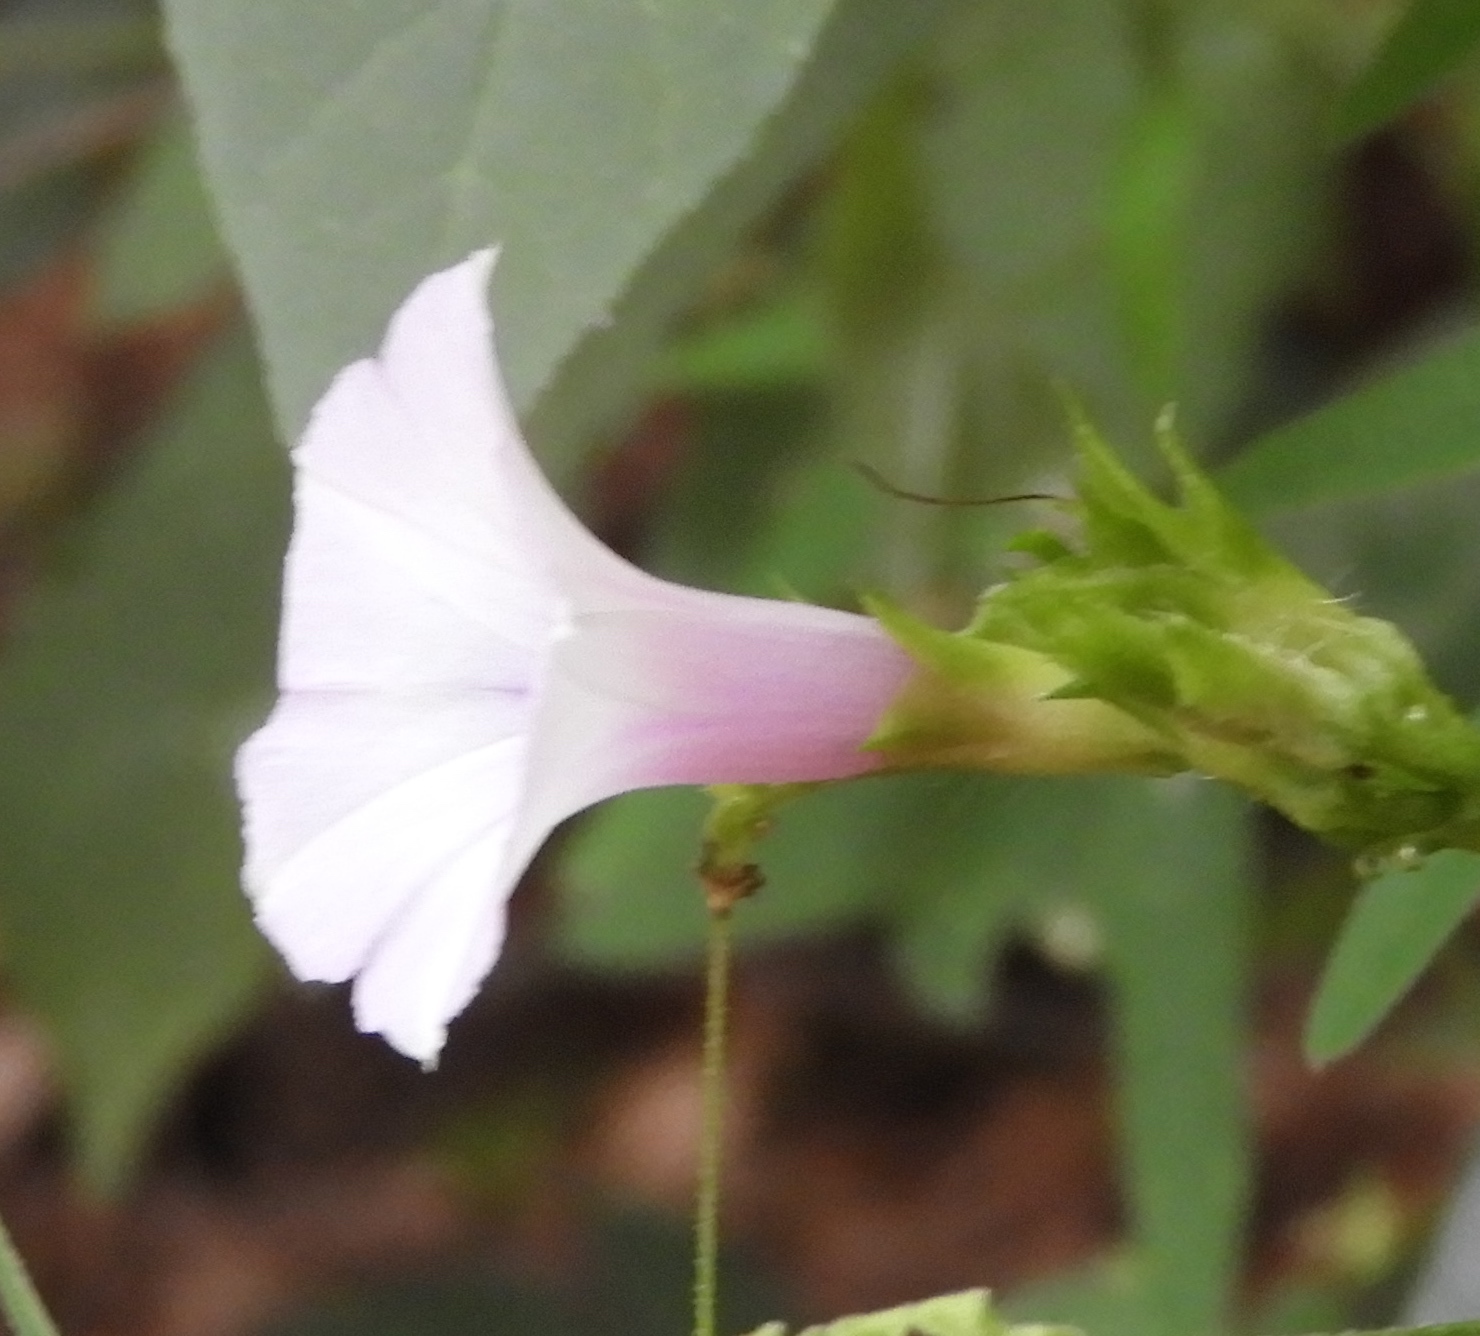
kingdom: Plantae
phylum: Tracheophyta
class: Magnoliopsida
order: Solanales
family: Convolvulaceae
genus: Ipomoea
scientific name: Ipomoea triloba
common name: Little-bell
